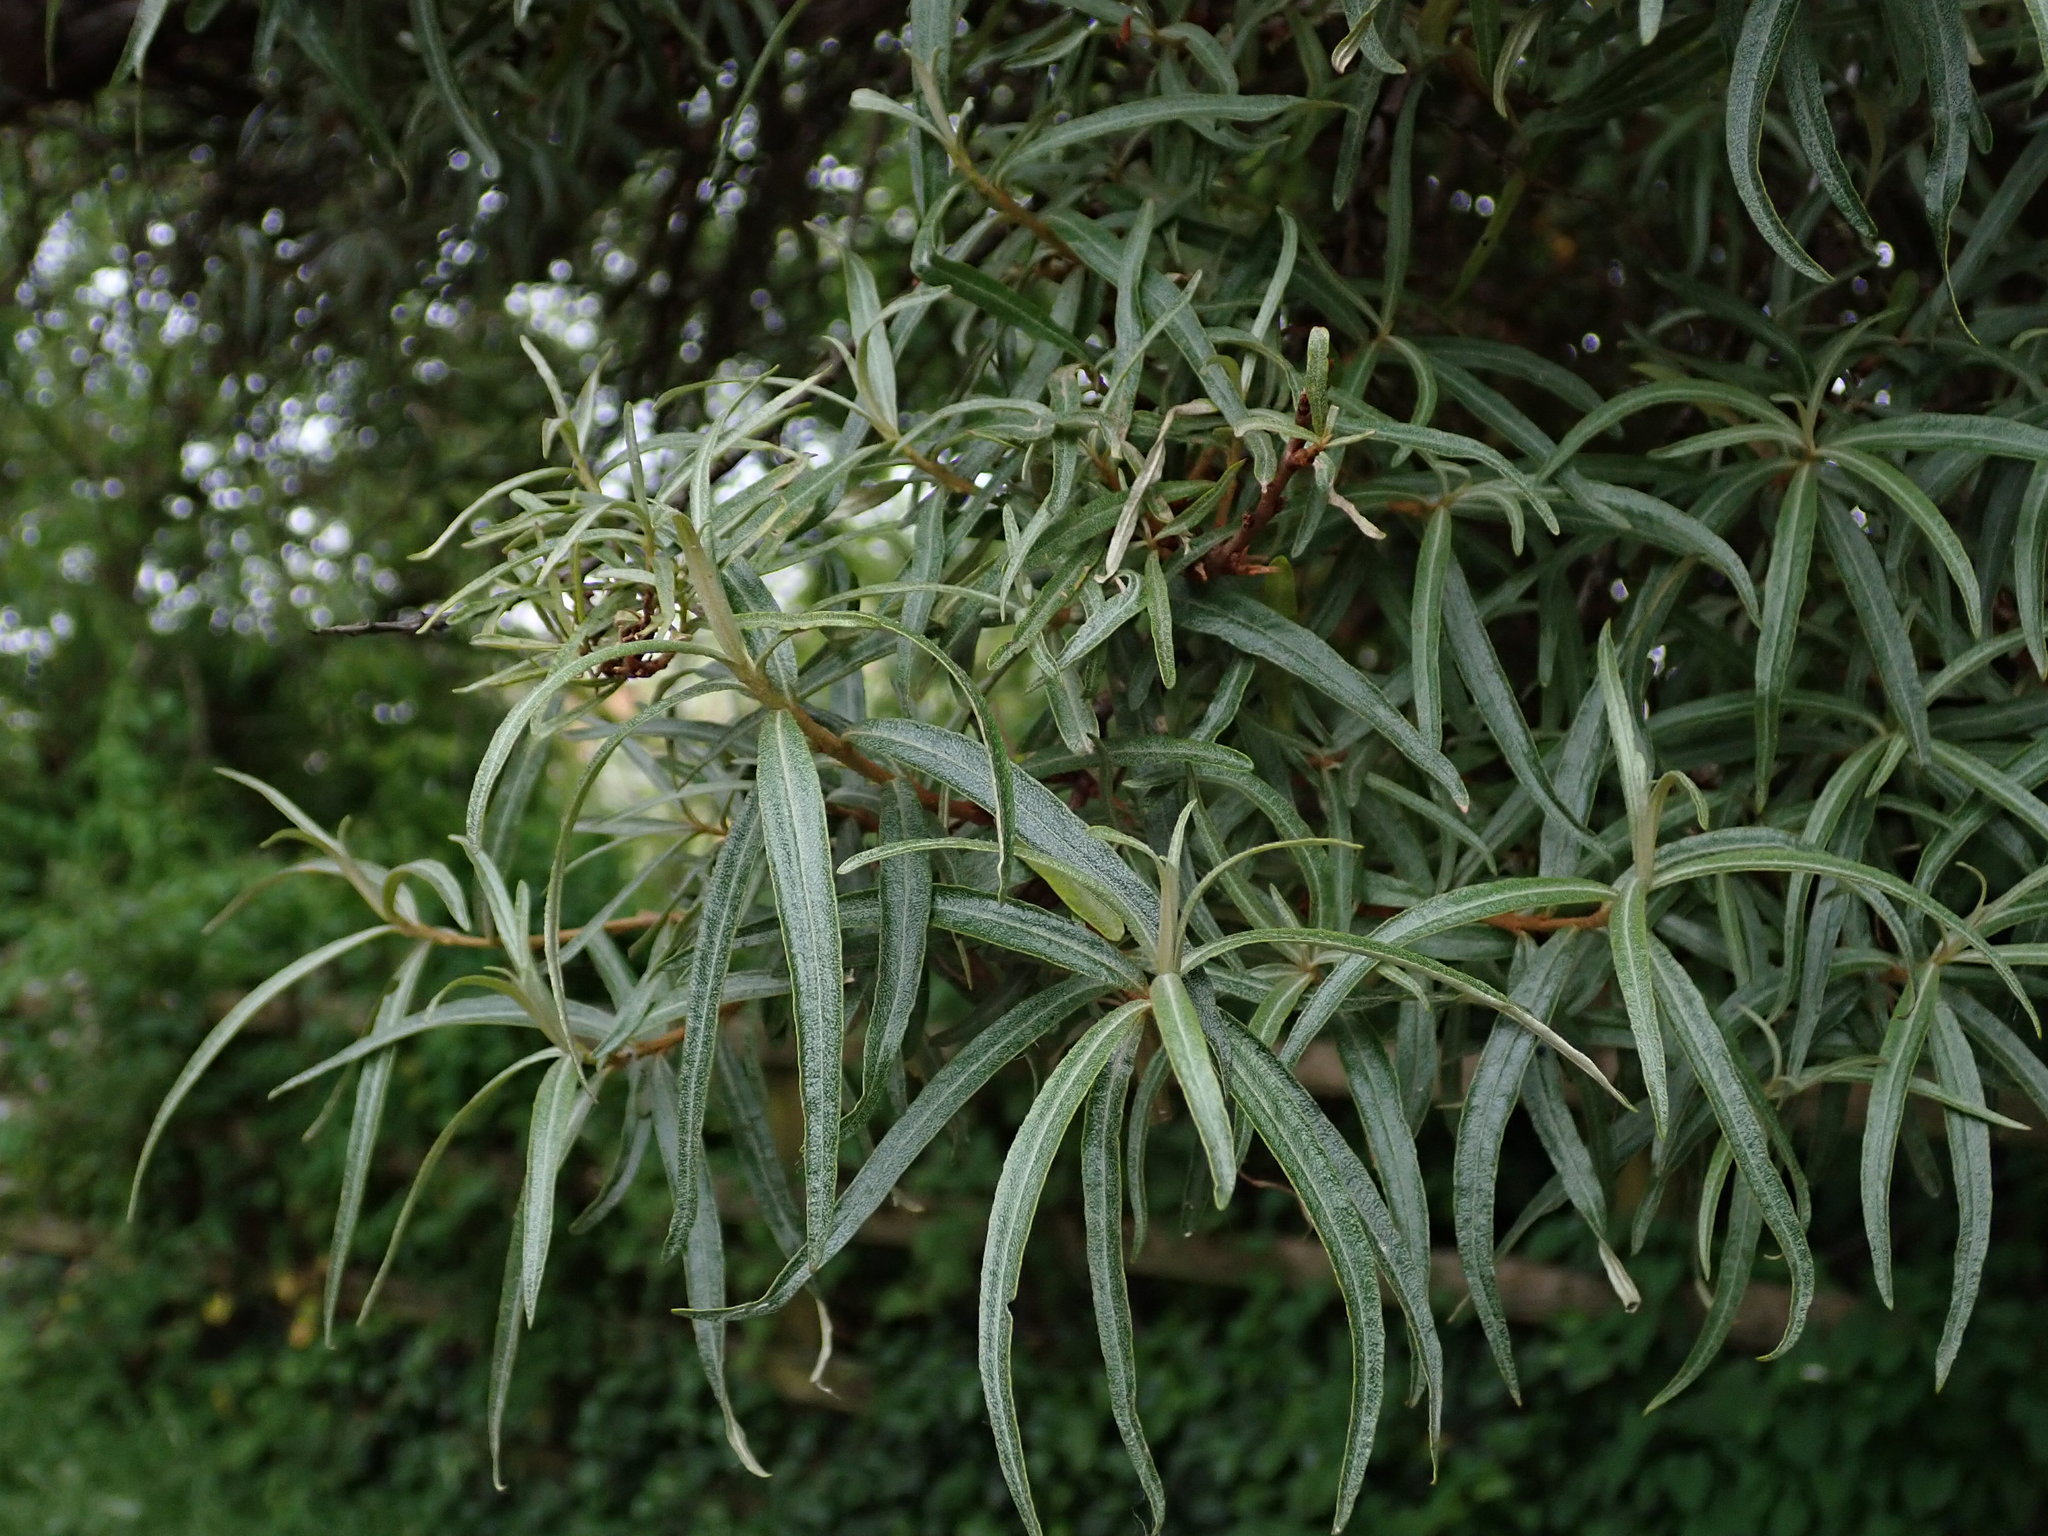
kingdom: Plantae
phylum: Tracheophyta
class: Magnoliopsida
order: Rosales
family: Elaeagnaceae
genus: Hippophae
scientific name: Hippophae rhamnoides
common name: Sea-buckthorn
